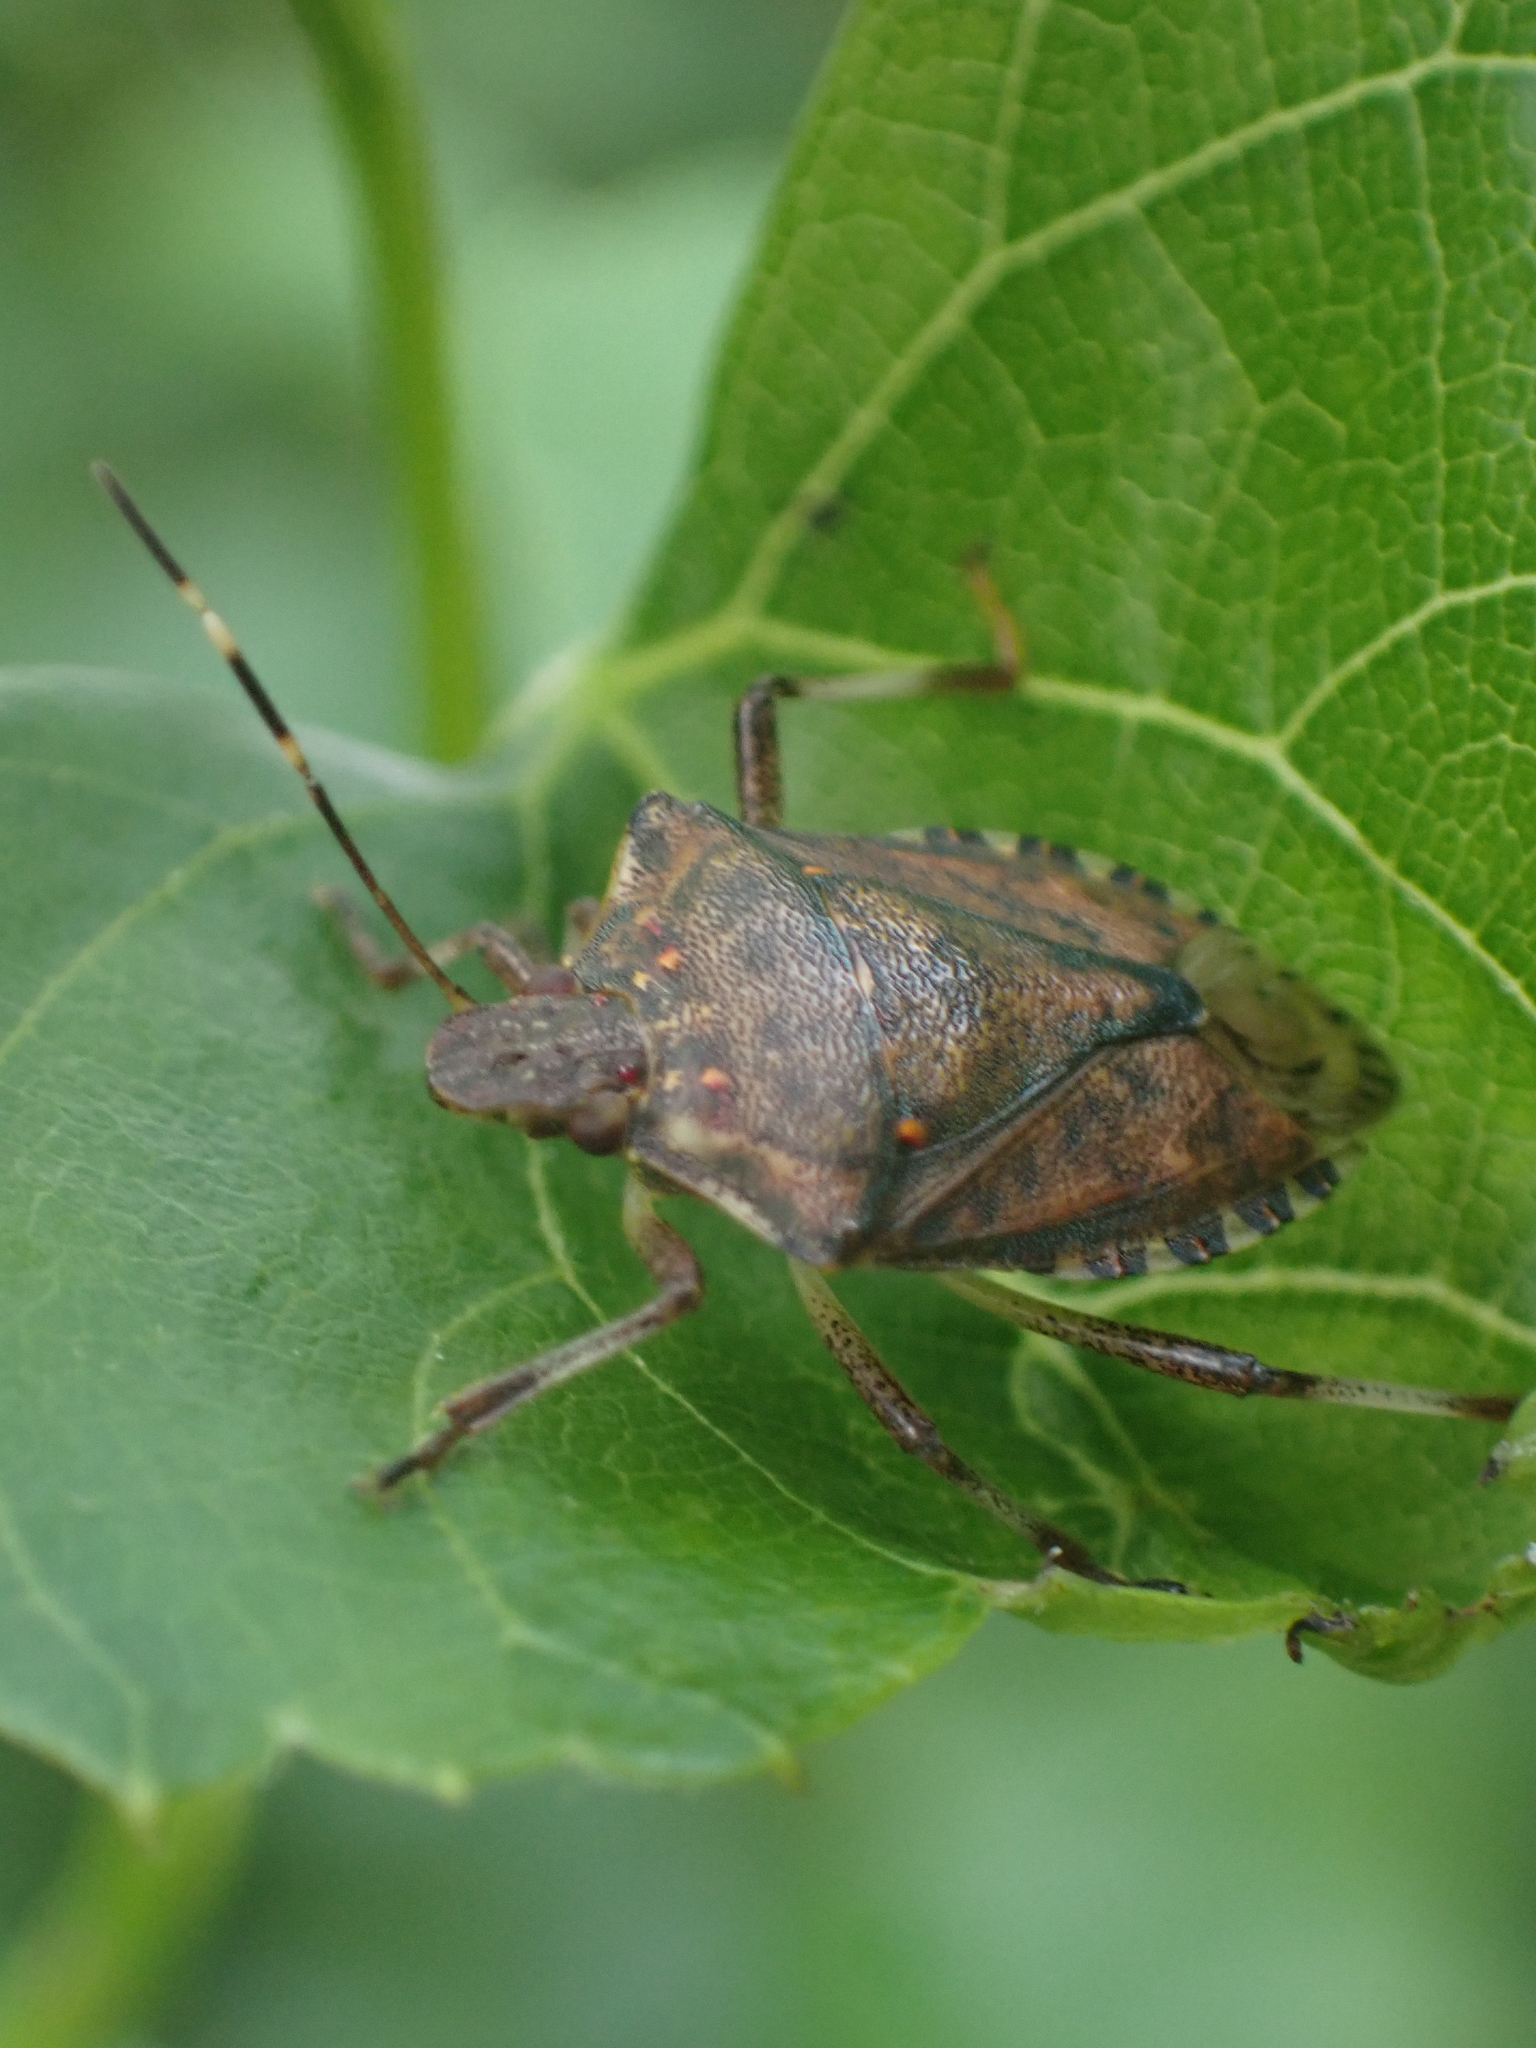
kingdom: Animalia
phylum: Arthropoda
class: Insecta
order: Hemiptera
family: Pentatomidae
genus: Halyomorpha
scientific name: Halyomorpha halys
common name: Brown marmorated stink bug
